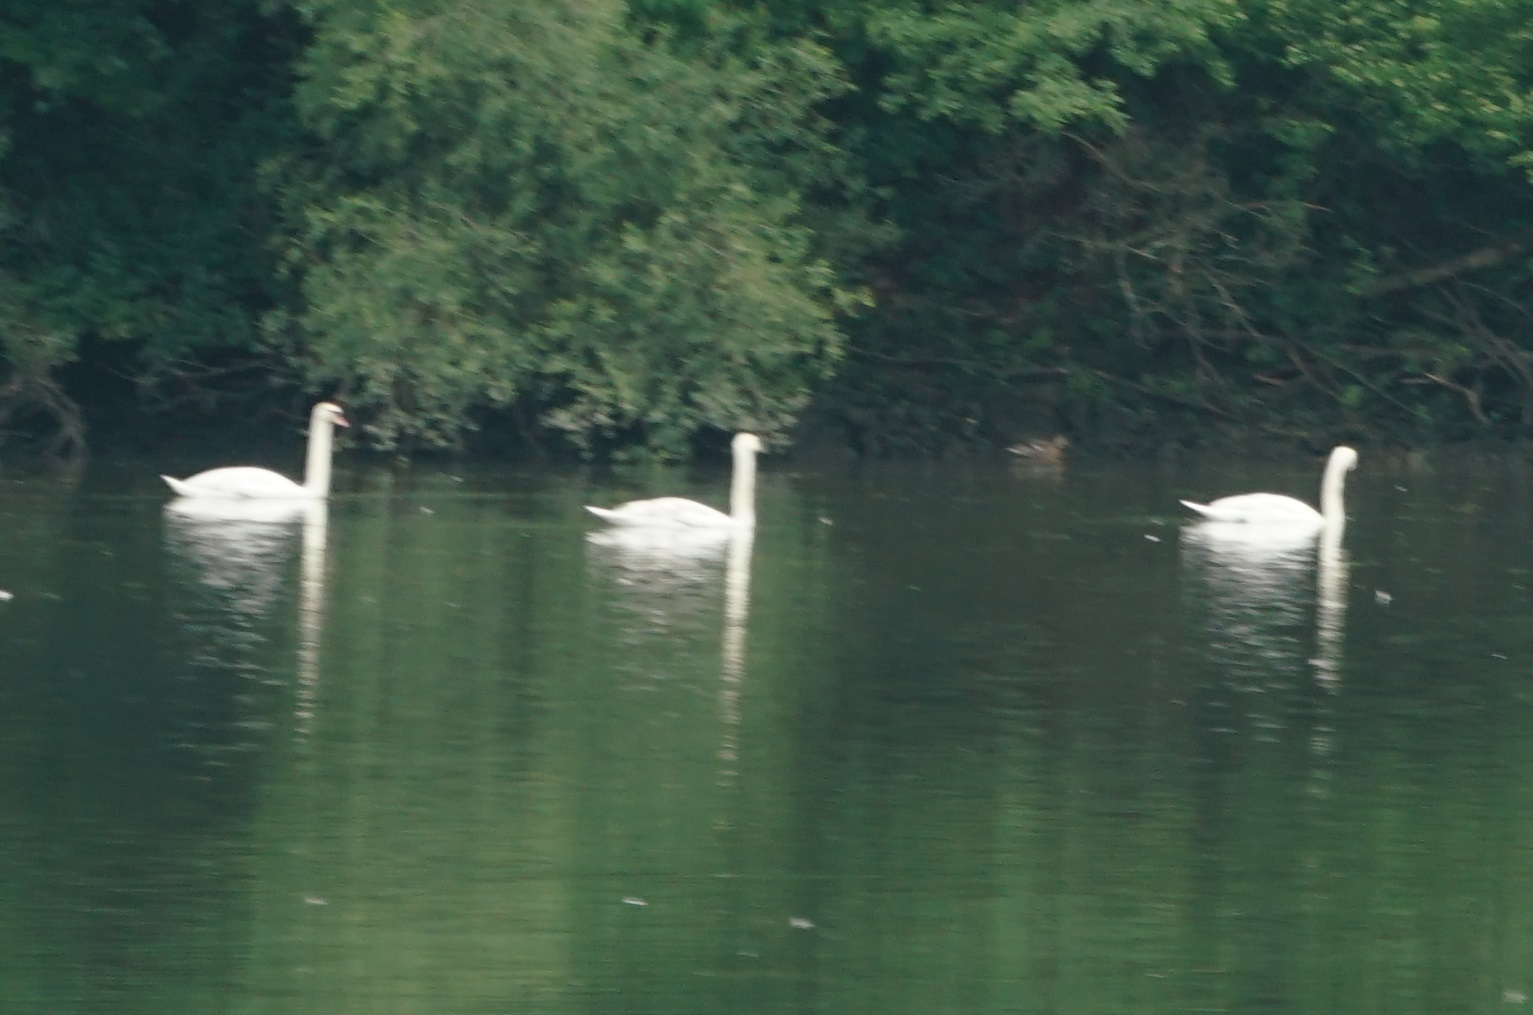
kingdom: Animalia
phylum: Chordata
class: Aves
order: Anseriformes
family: Anatidae
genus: Cygnus
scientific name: Cygnus olor
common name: Mute swan
